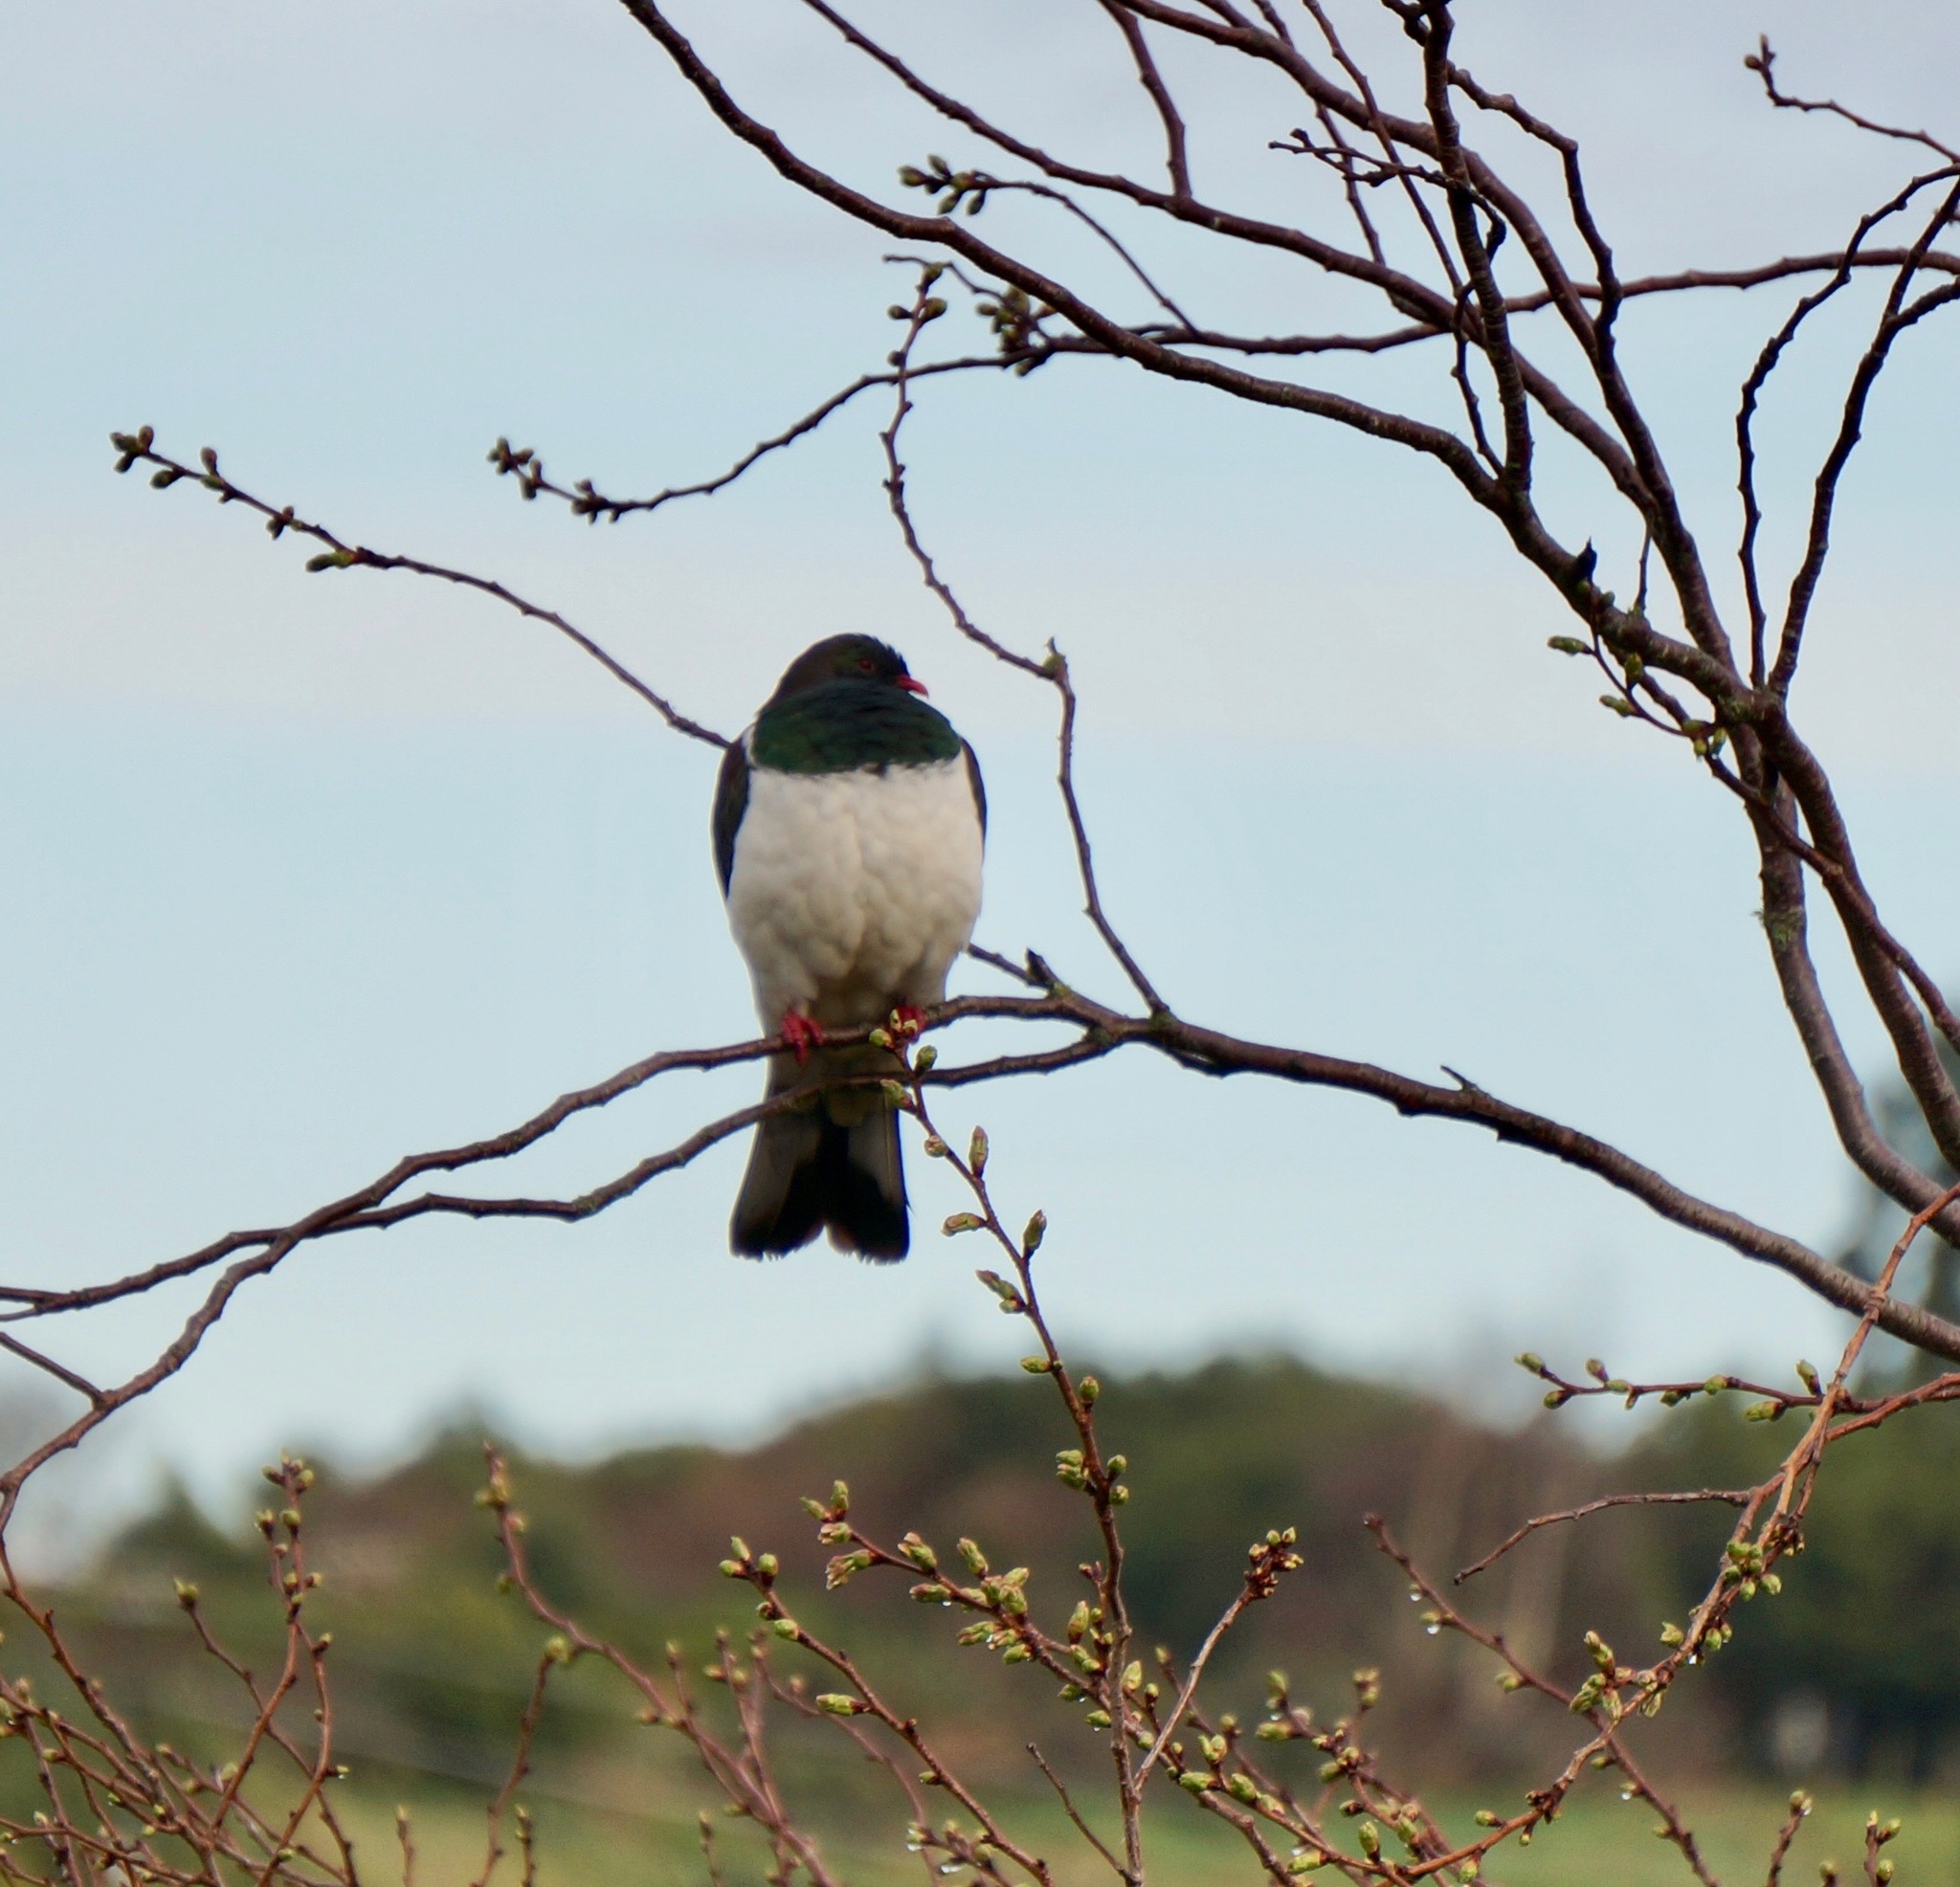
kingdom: Animalia
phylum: Chordata
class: Aves
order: Columbiformes
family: Columbidae
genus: Hemiphaga
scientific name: Hemiphaga novaeseelandiae
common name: New zealand pigeon
